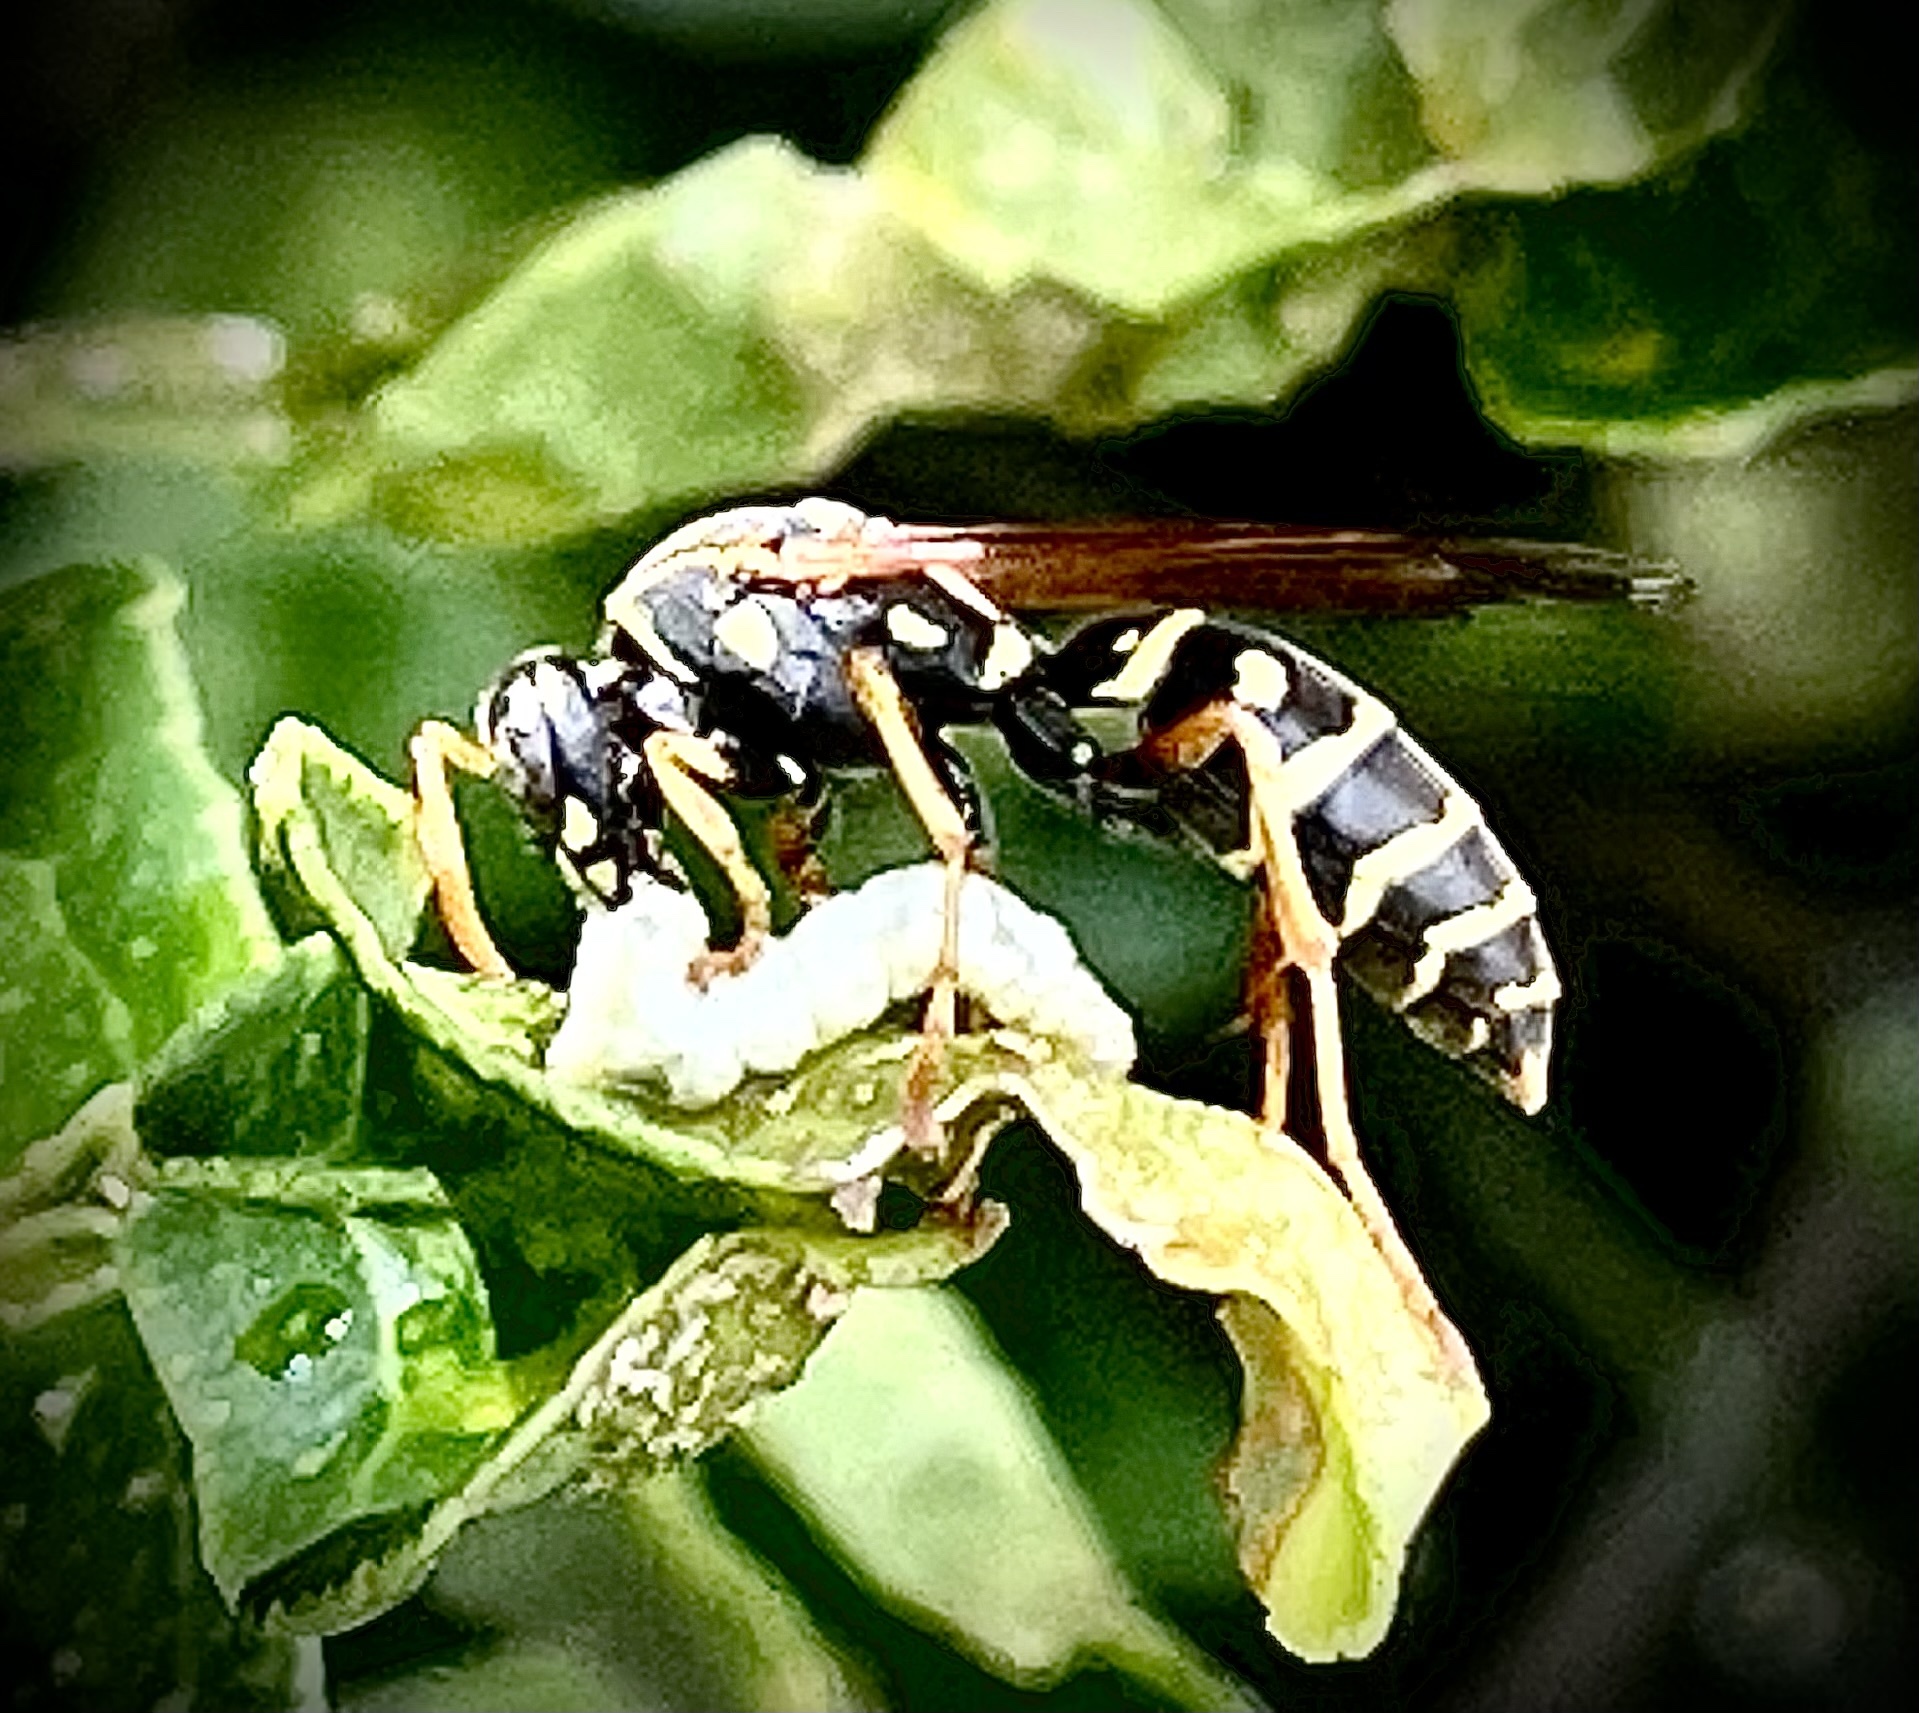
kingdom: Animalia
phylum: Arthropoda
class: Insecta
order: Hymenoptera
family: Eumenidae
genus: Polistes
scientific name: Polistes
